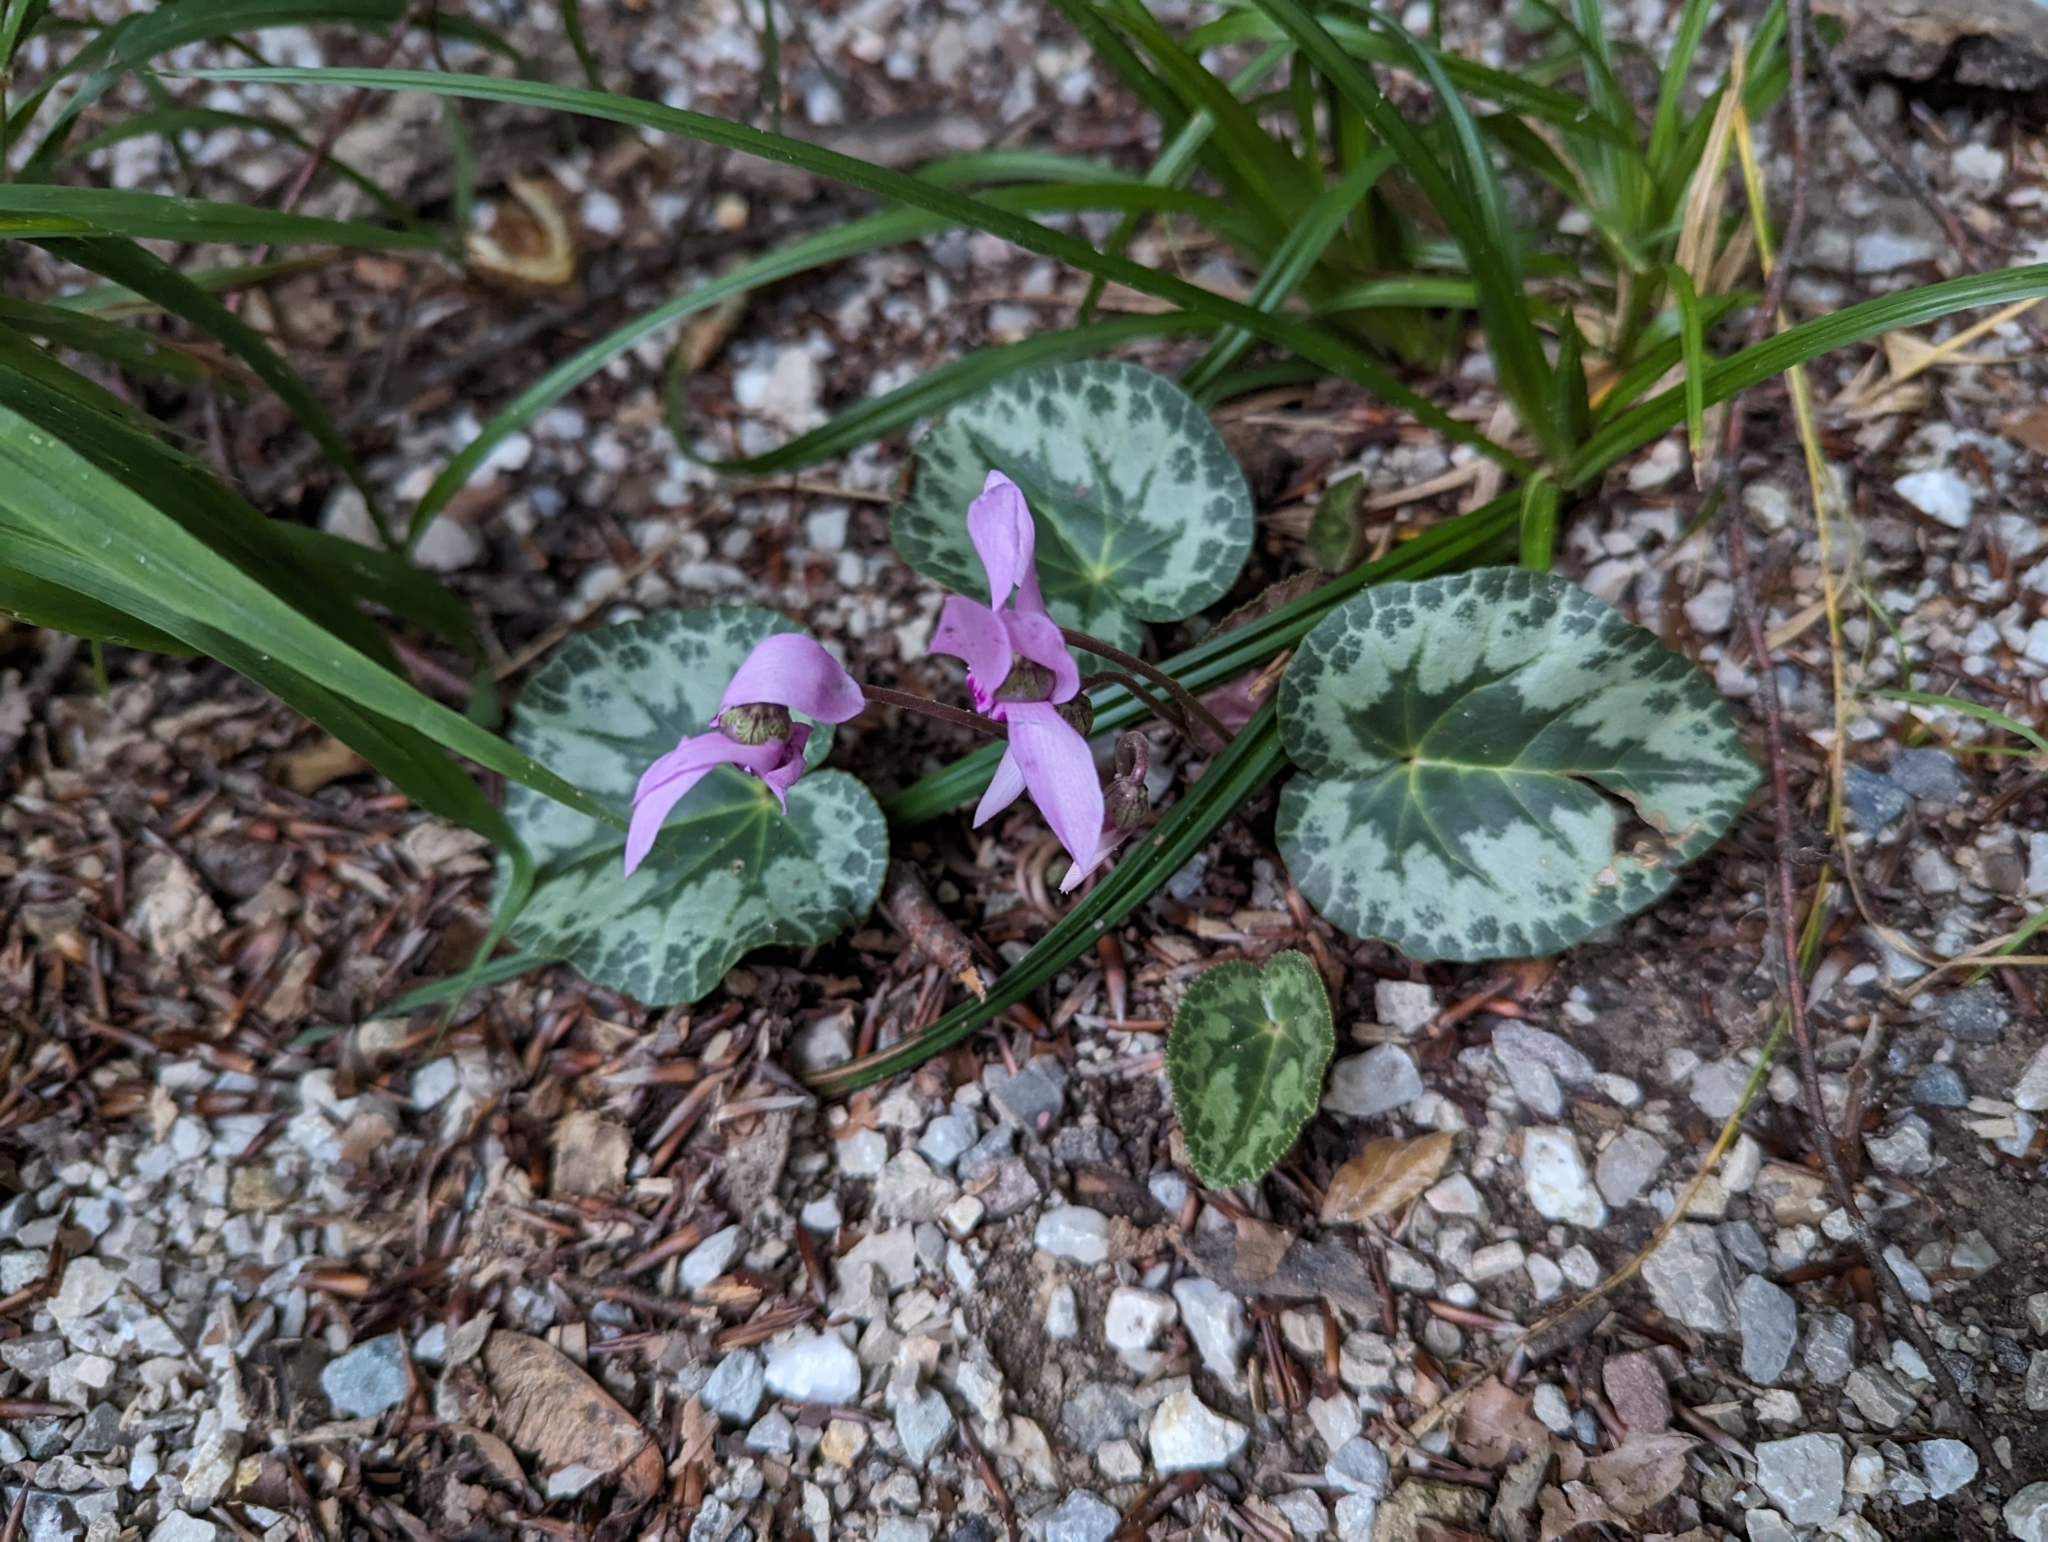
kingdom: Plantae
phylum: Tracheophyta
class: Magnoliopsida
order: Ericales
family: Primulaceae
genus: Cyclamen
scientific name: Cyclamen purpurascens
